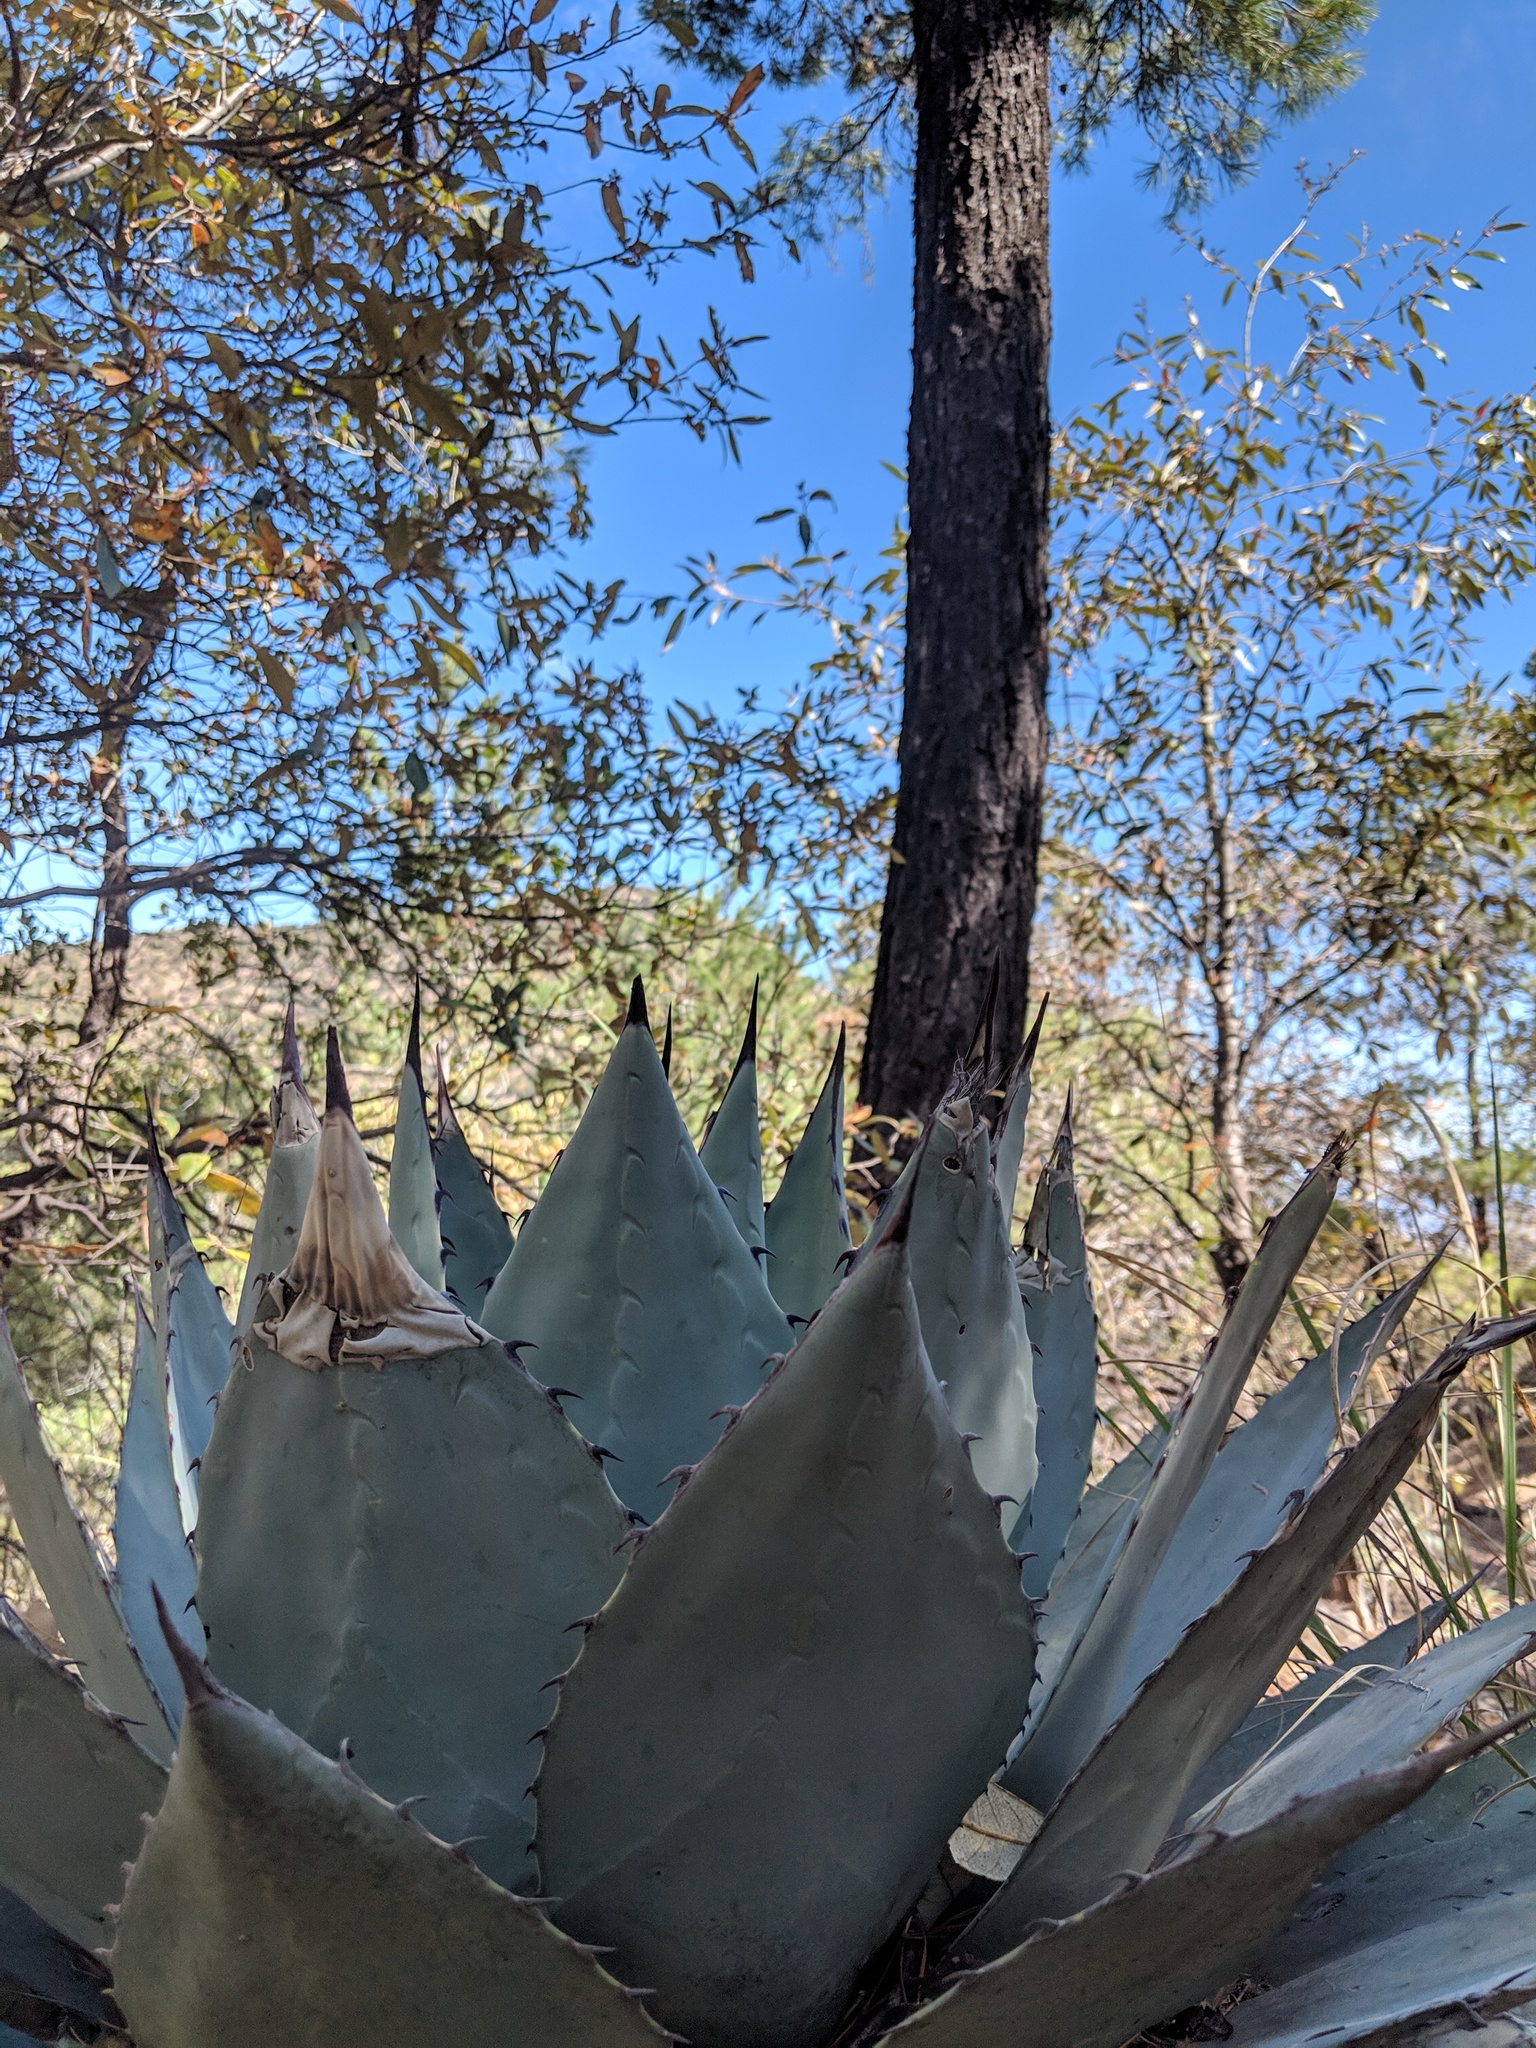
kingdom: Plantae
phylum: Tracheophyta
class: Liliopsida
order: Asparagales
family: Asparagaceae
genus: Agave
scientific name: Agave parryi
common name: Parry's agave
